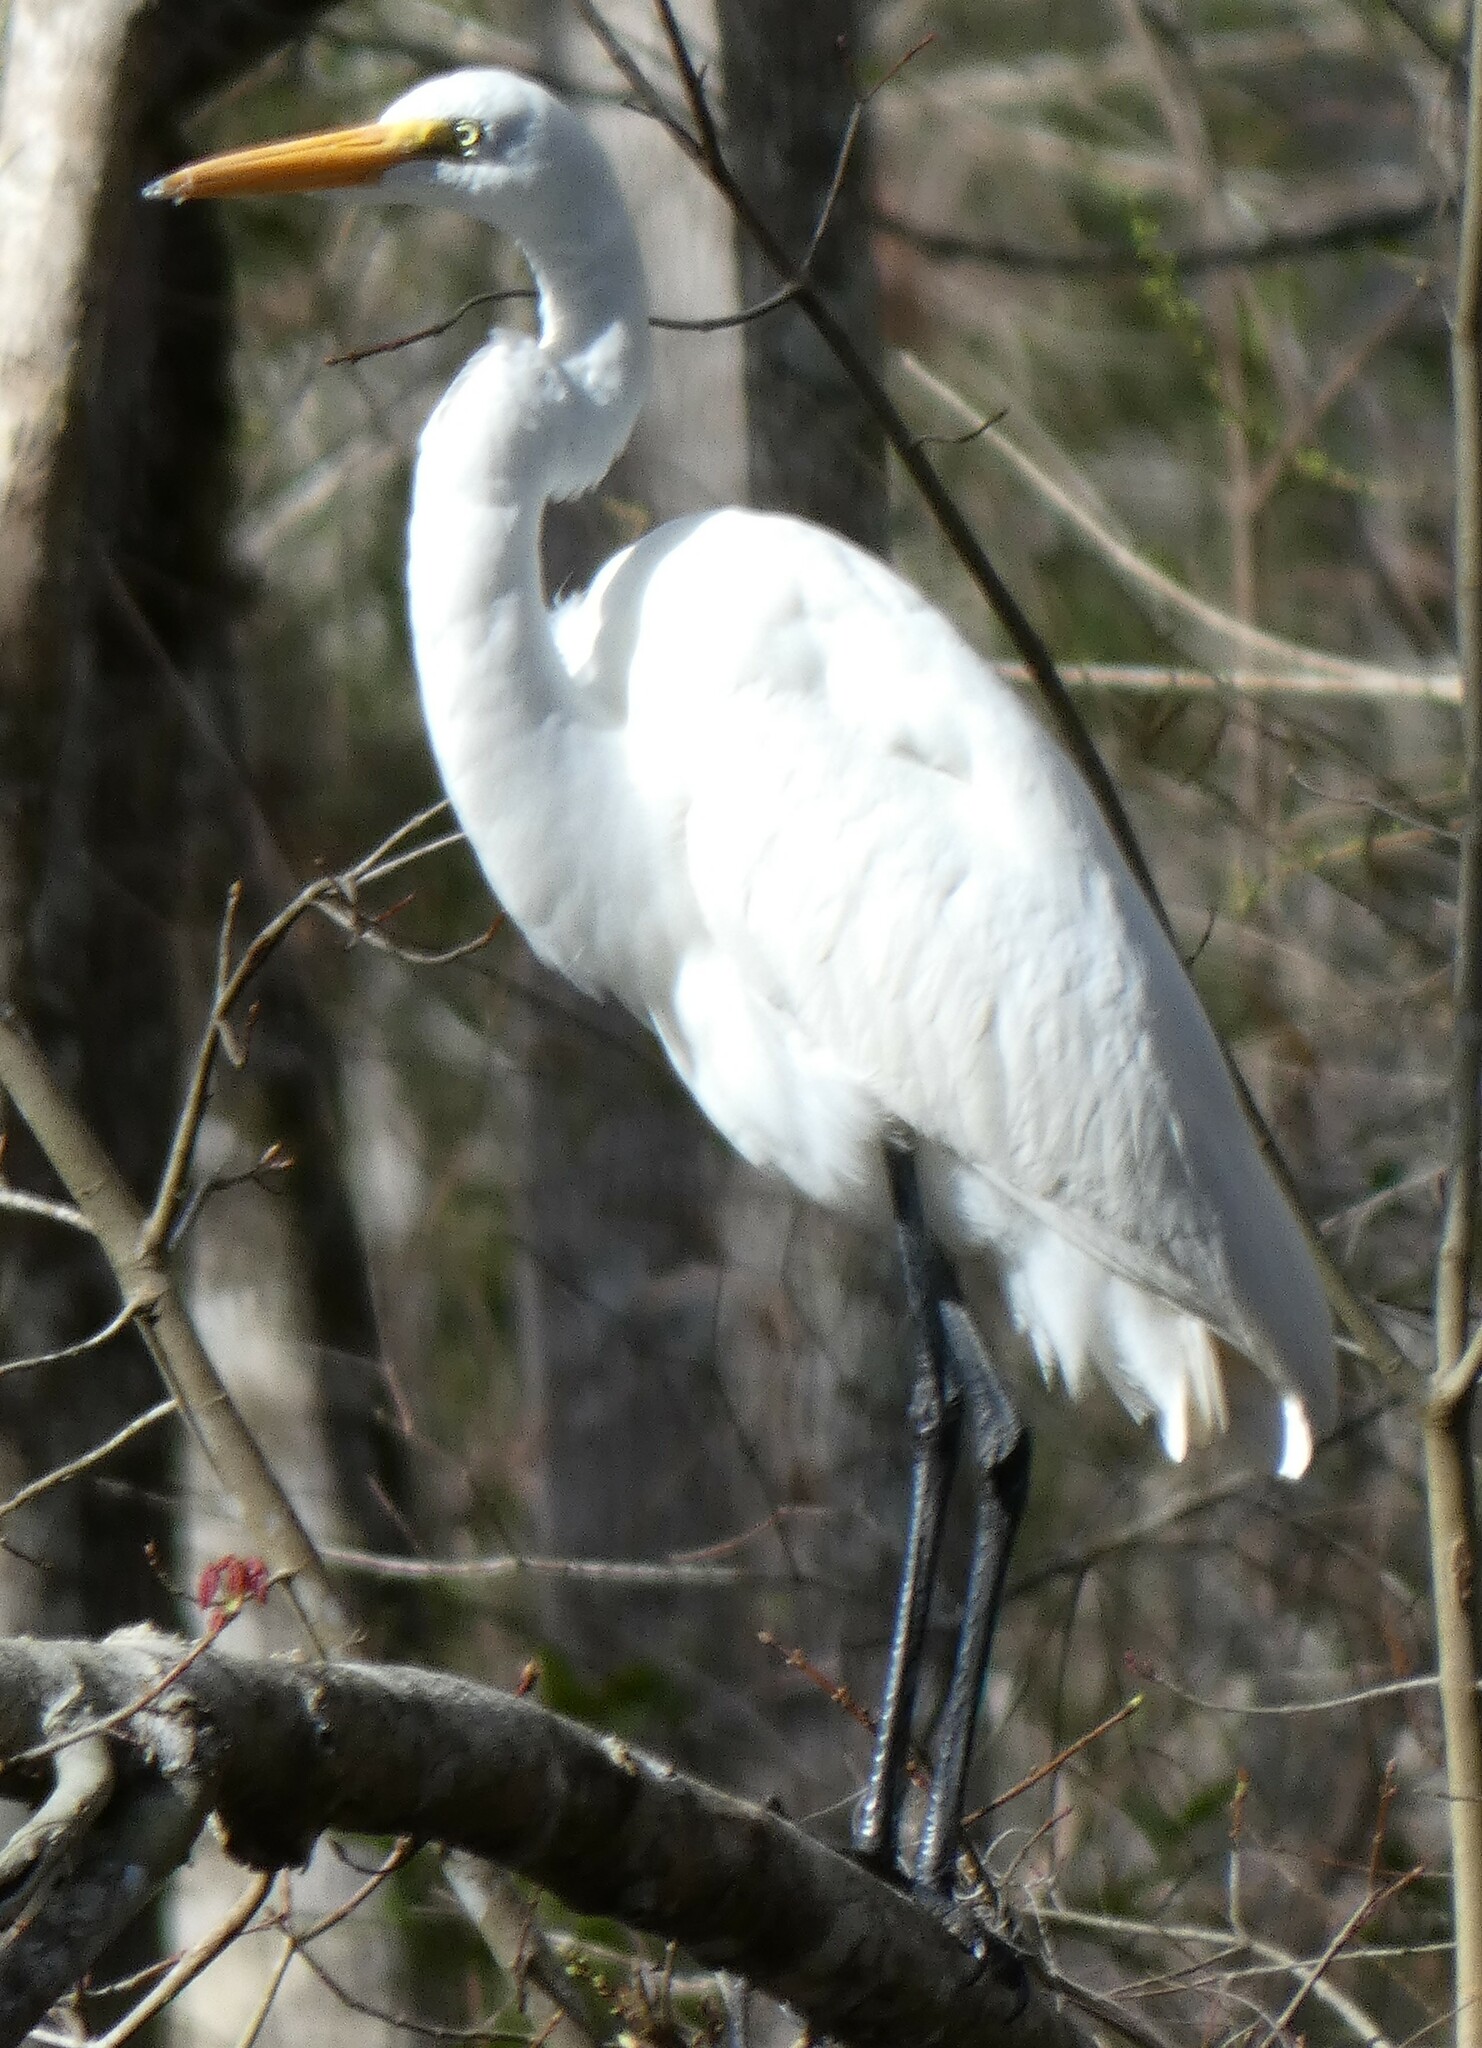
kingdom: Animalia
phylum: Chordata
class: Aves
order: Pelecaniformes
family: Ardeidae
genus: Ardea
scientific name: Ardea alba
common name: Great egret
